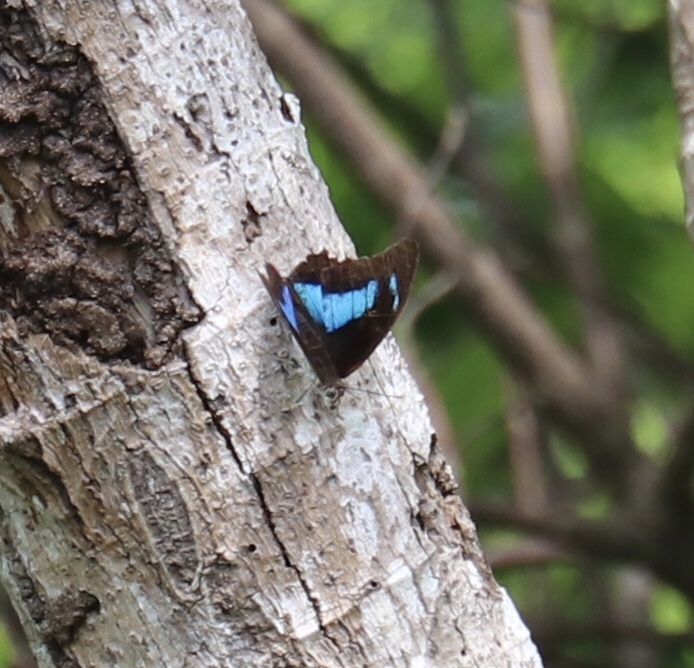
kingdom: Animalia
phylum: Arthropoda
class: Insecta
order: Lepidoptera
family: Nymphalidae
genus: Prepona
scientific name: Prepona demophon
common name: One-spotted prepona
